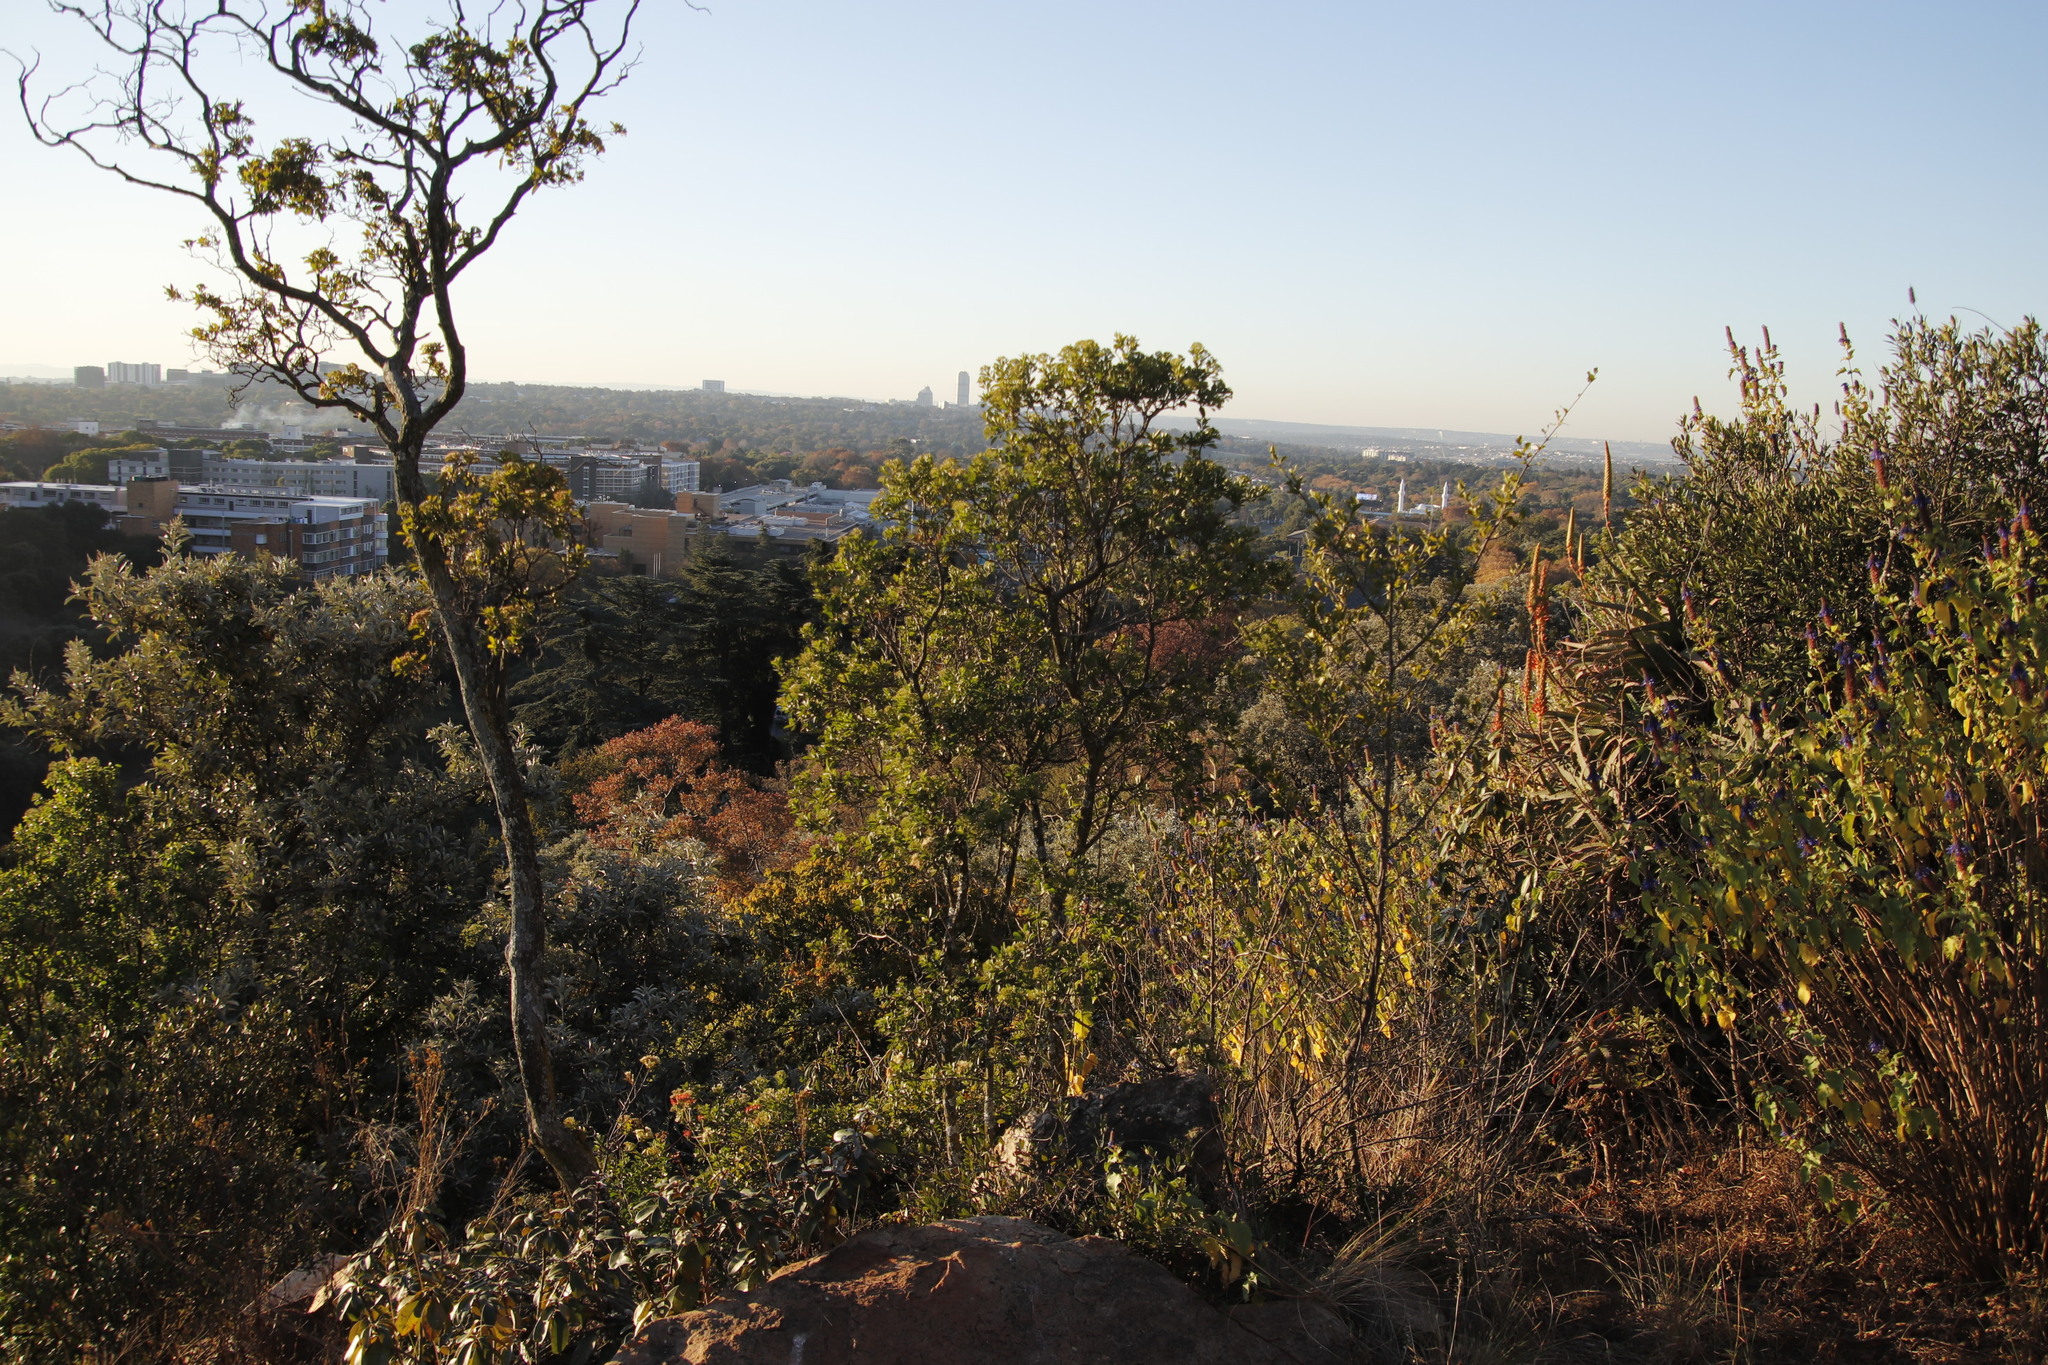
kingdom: Plantae
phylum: Tracheophyta
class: Magnoliopsida
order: Lamiales
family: Stilbaceae
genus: Nuxia
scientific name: Nuxia congesta
